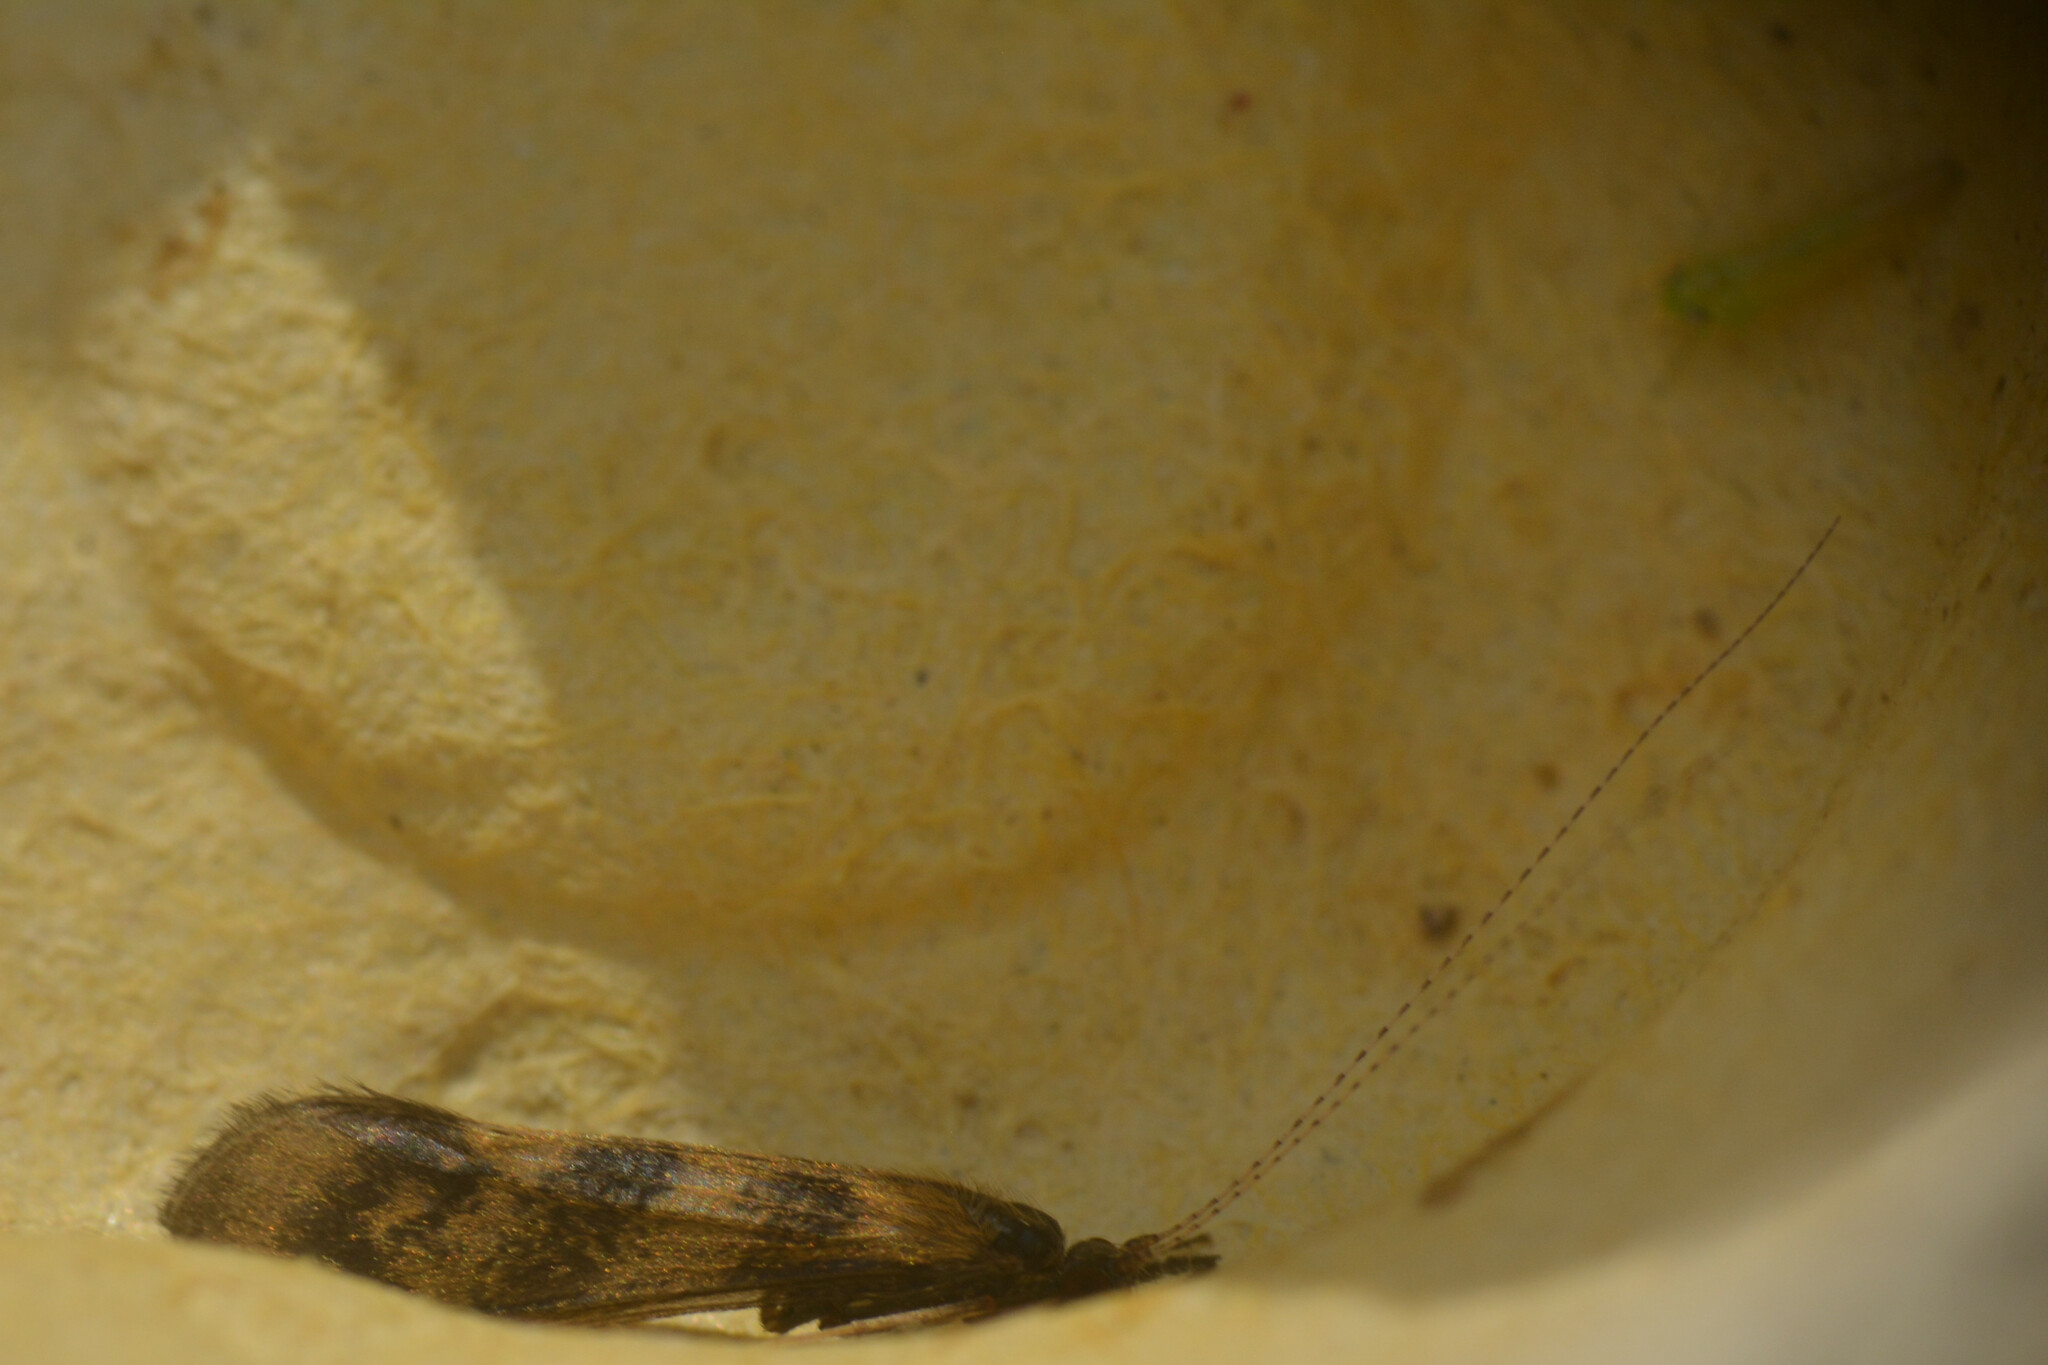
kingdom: Animalia
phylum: Arthropoda
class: Insecta
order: Trichoptera
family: Leptoceridae
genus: Mystacides
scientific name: Mystacides longicornis
